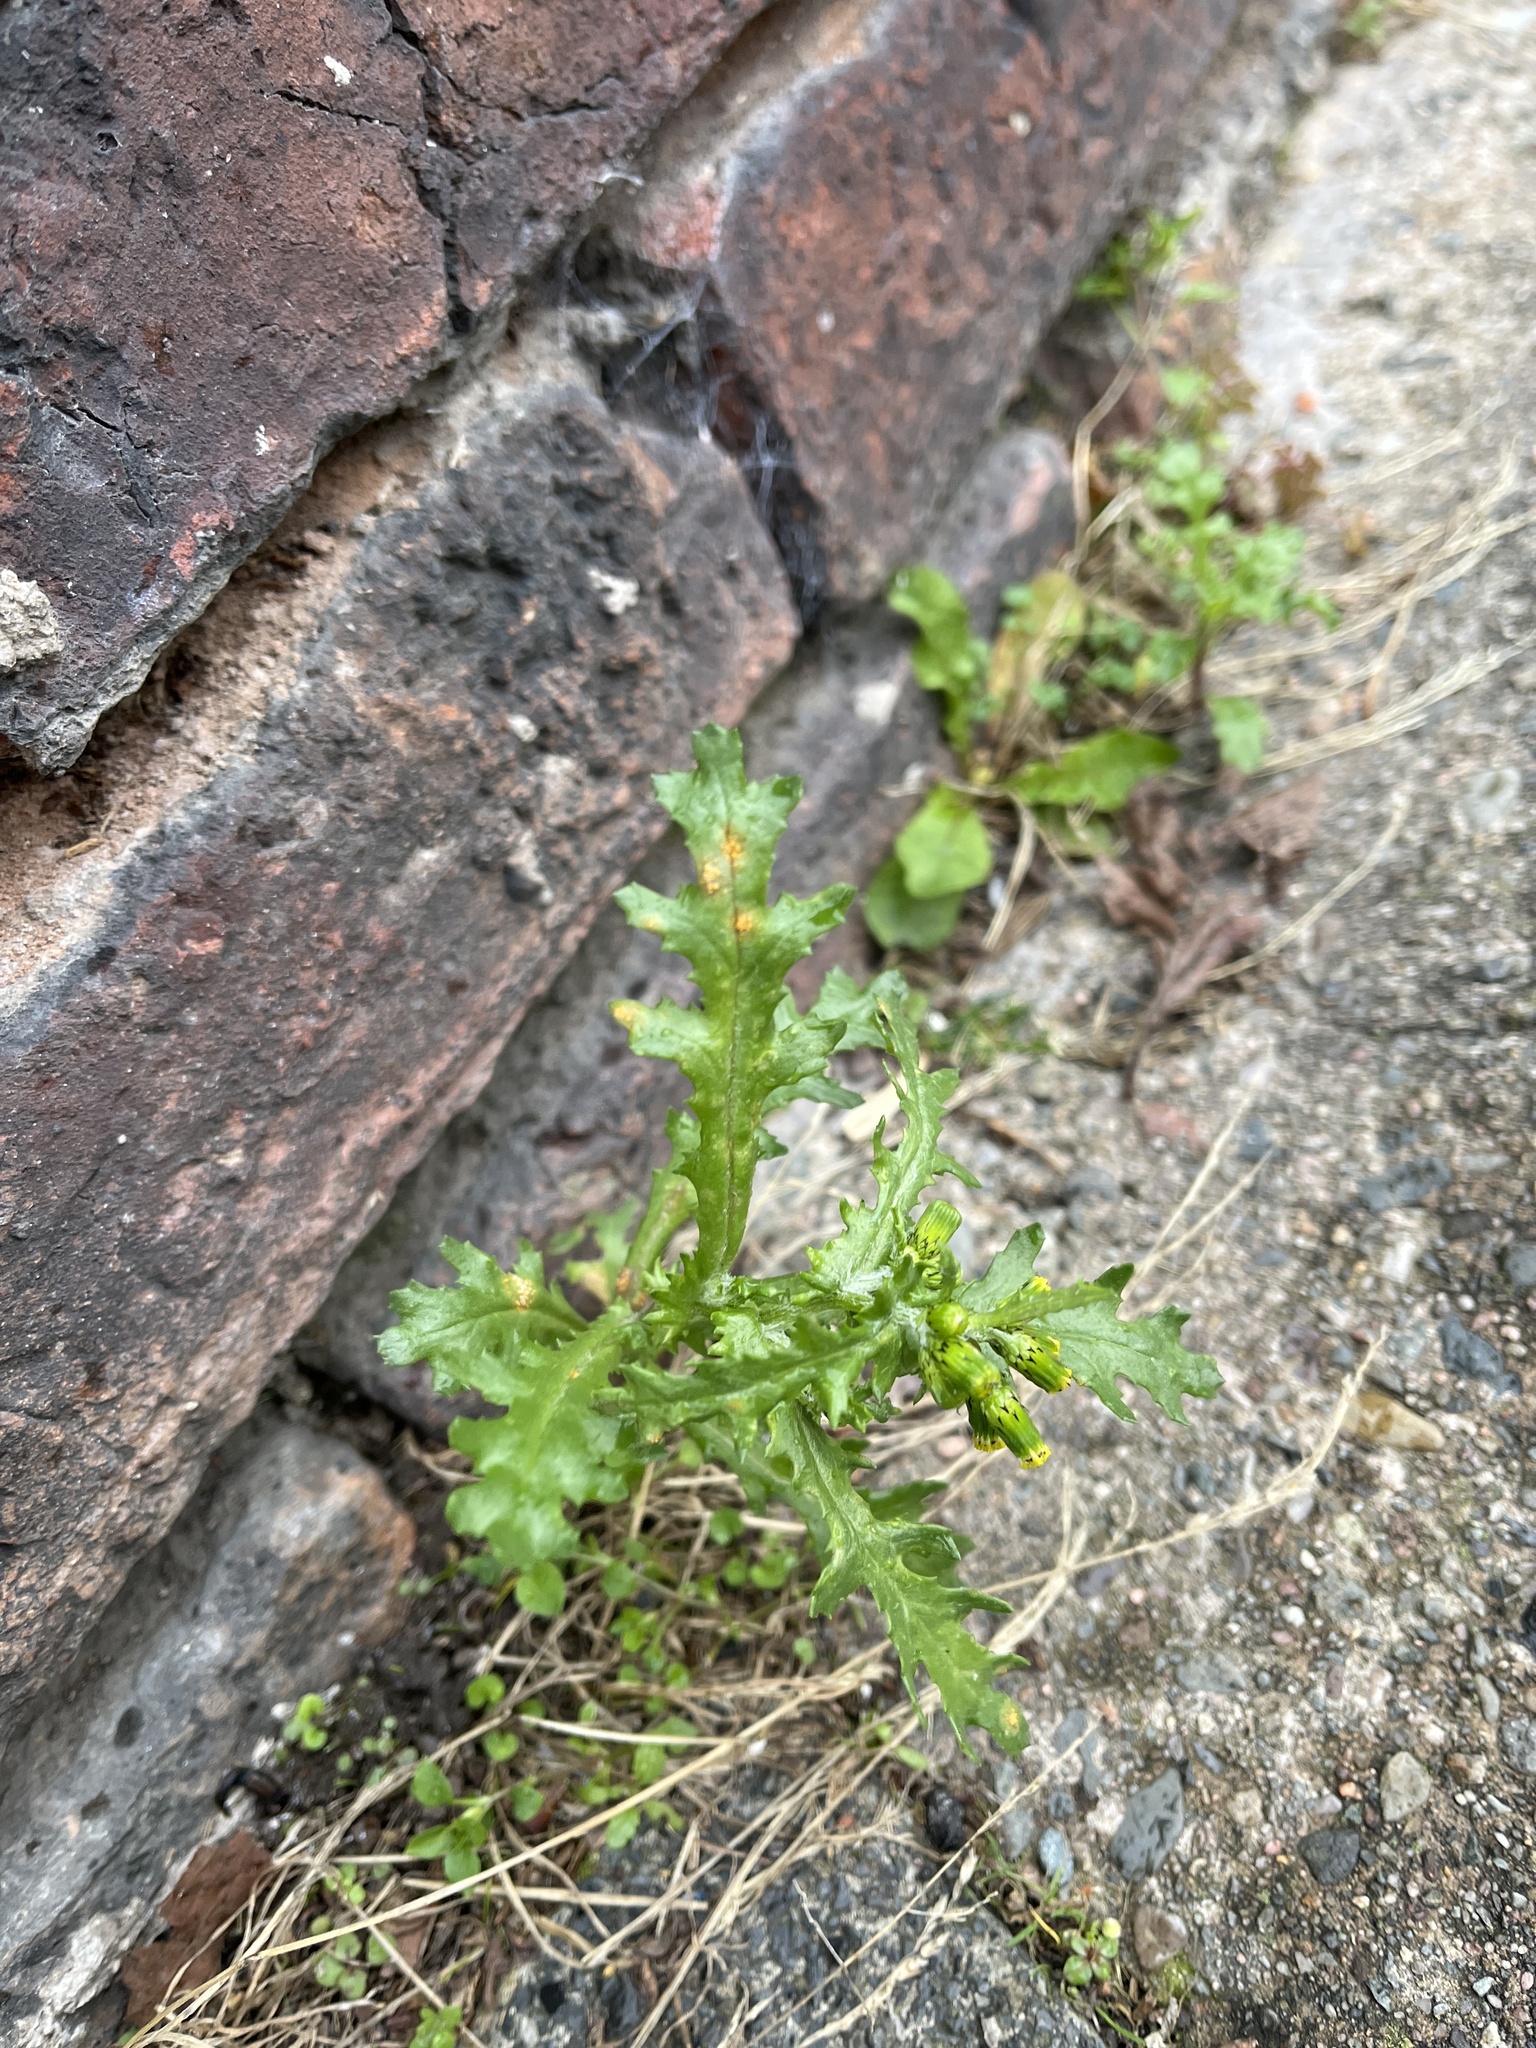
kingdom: Fungi
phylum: Basidiomycota
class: Pucciniomycetes
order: Pucciniales
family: Pucciniaceae
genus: Puccinia
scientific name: Puccinia lagenophorae
